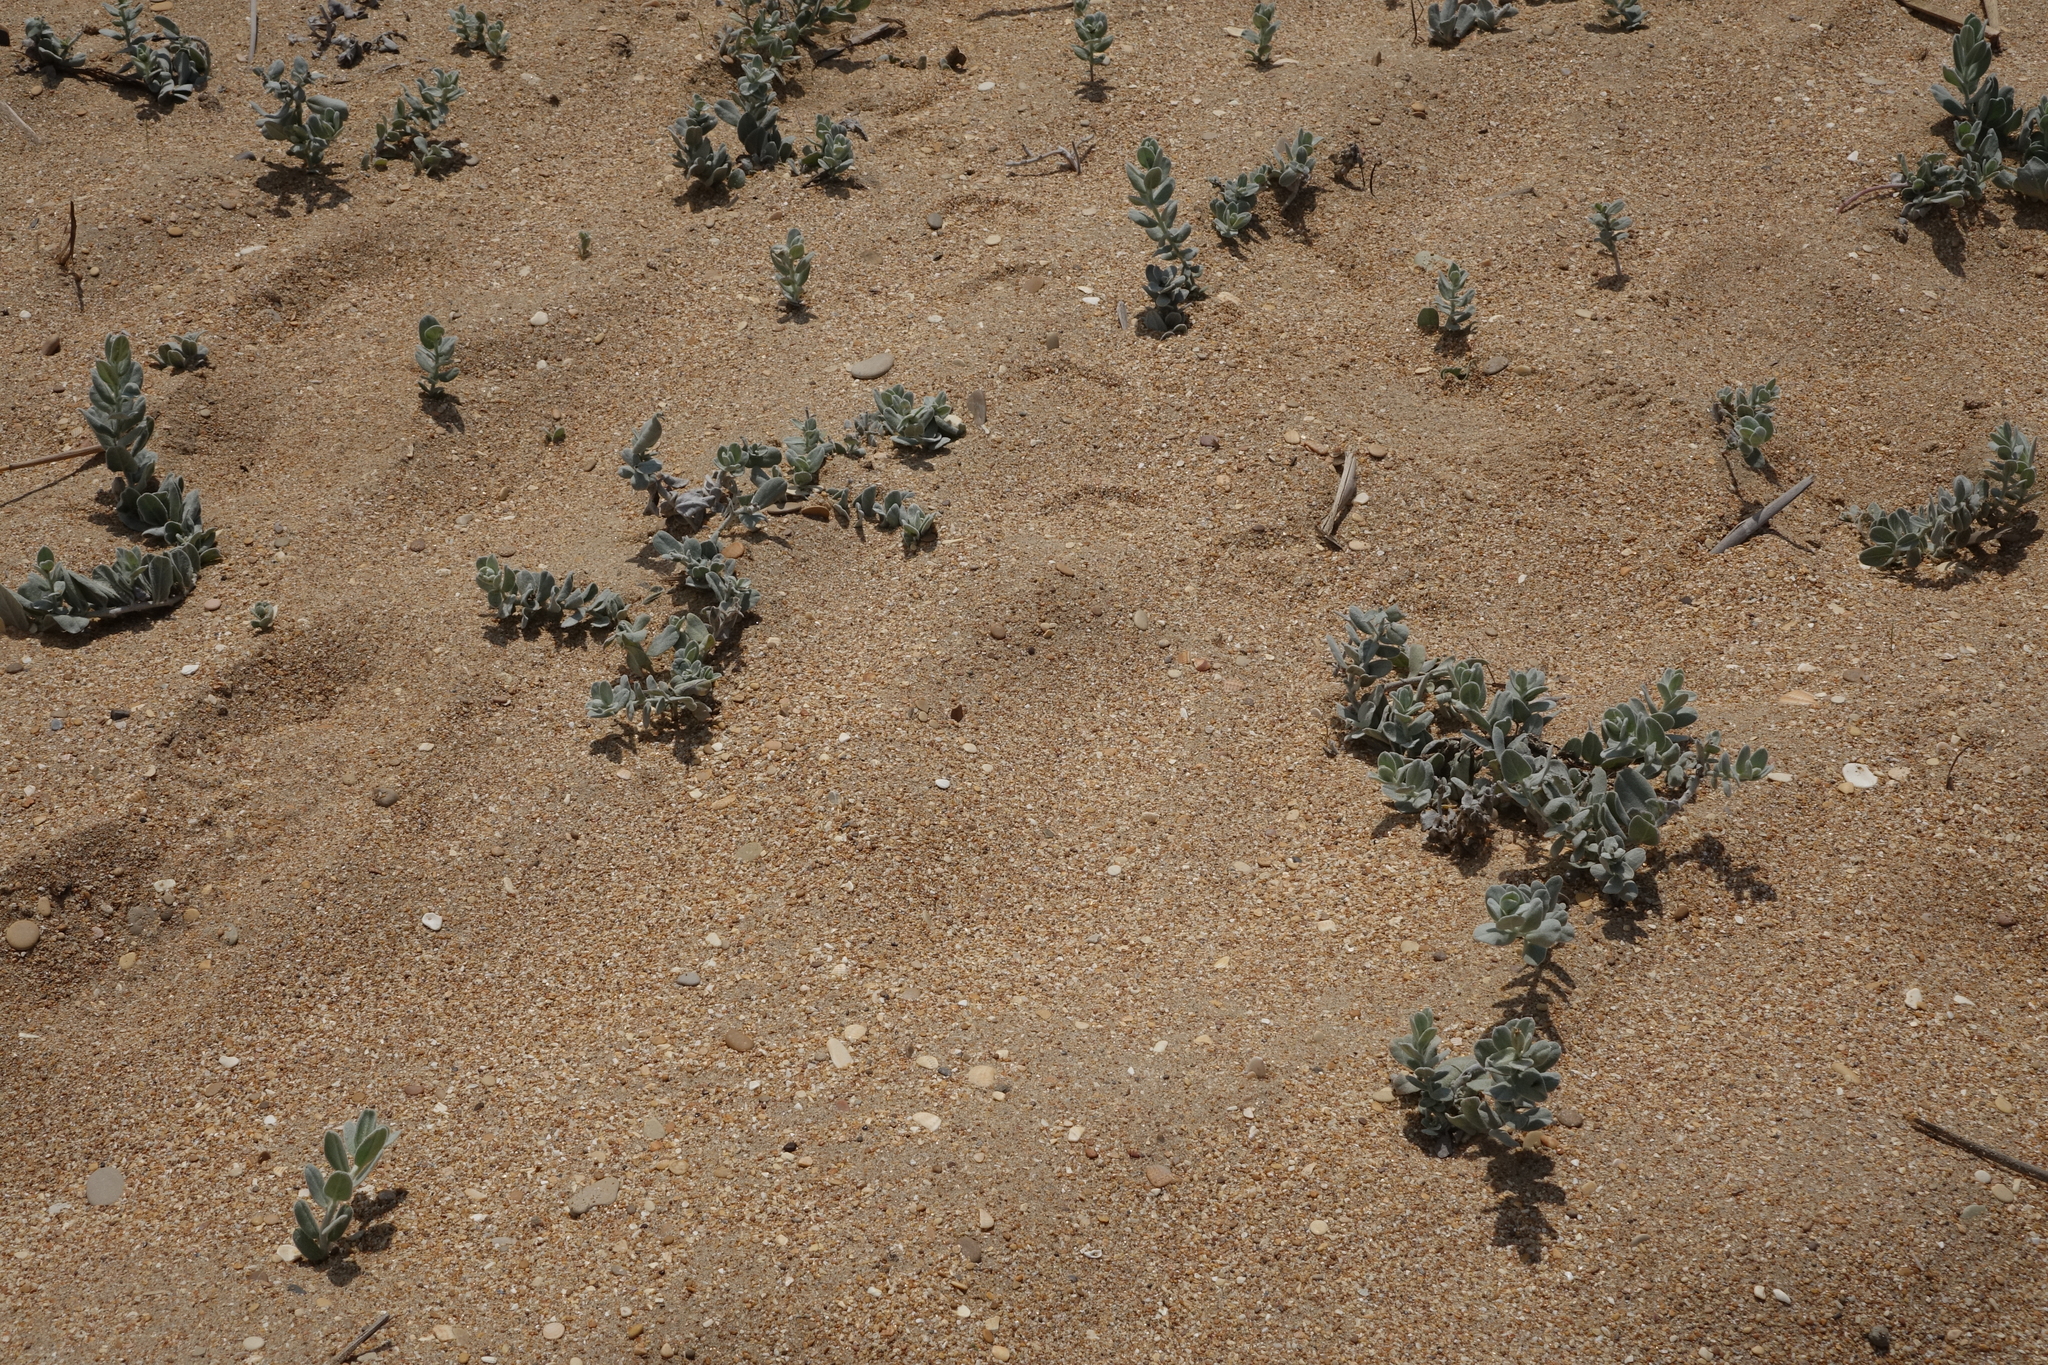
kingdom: Plantae
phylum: Tracheophyta
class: Magnoliopsida
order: Solanales
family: Convolvulaceae
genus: Convolvulus
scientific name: Convolvulus persicus
